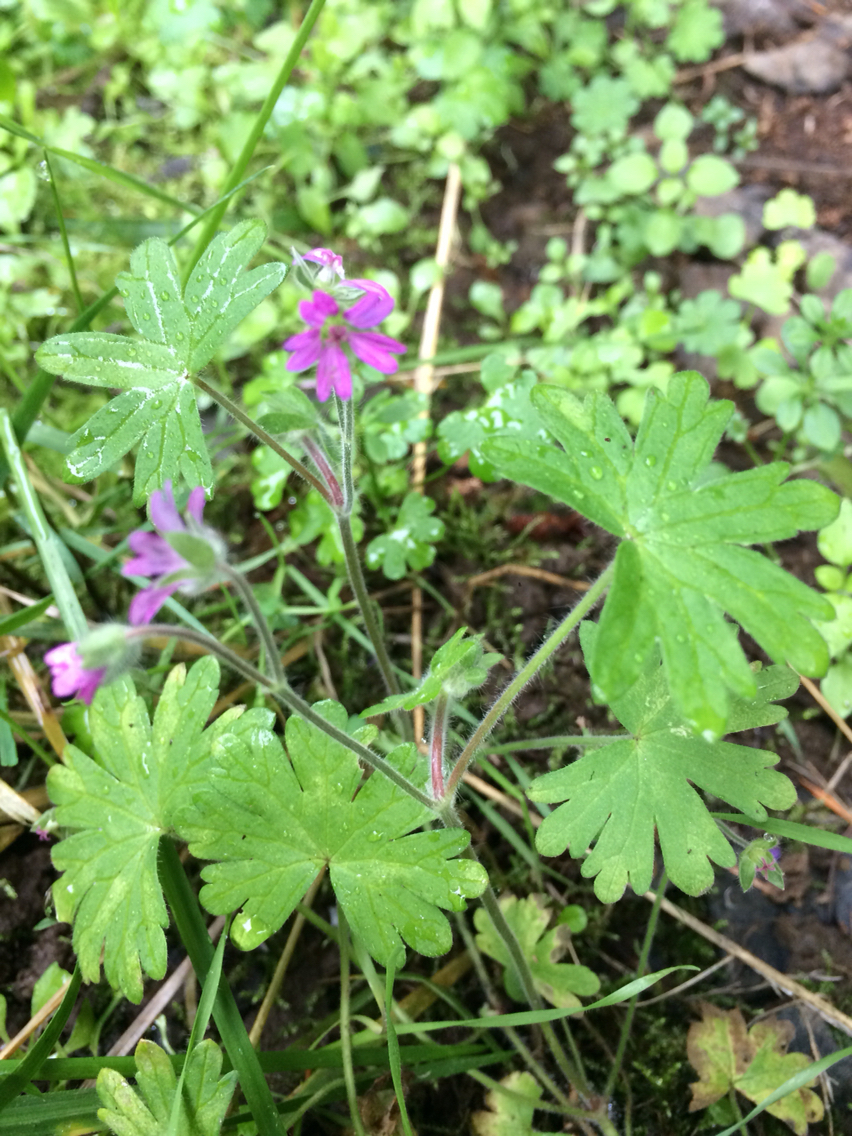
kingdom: Plantae
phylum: Tracheophyta
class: Magnoliopsida
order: Geraniales
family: Geraniaceae
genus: Geranium
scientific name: Geranium molle
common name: Dove's-foot crane's-bill
